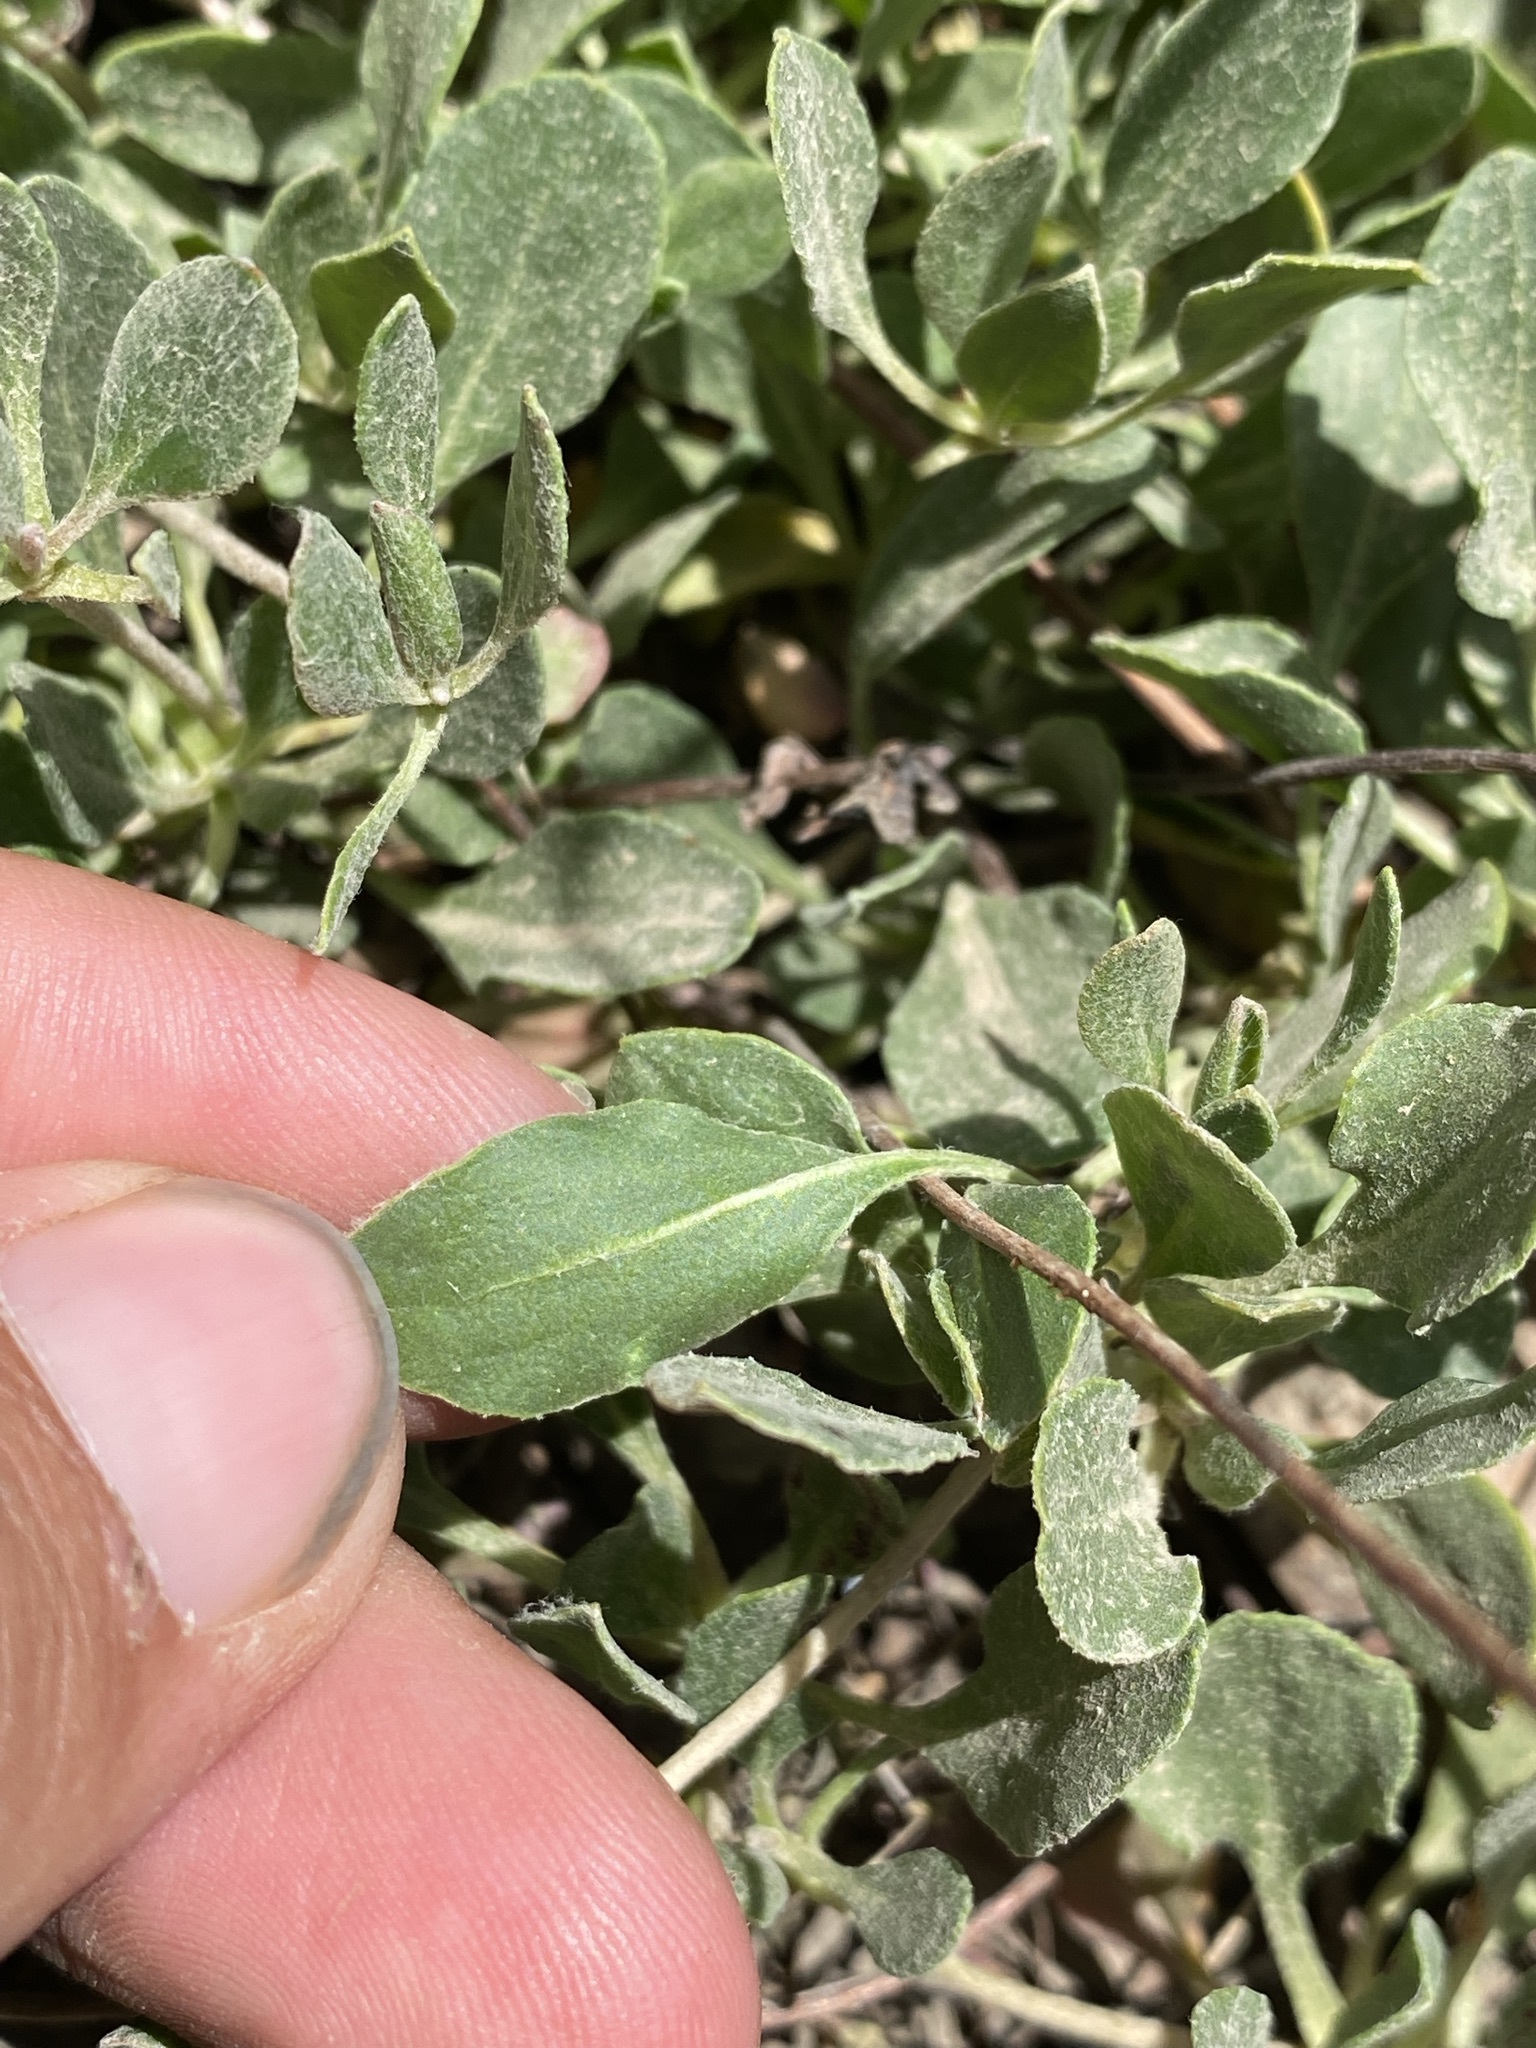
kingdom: Plantae
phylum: Tracheophyta
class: Magnoliopsida
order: Caryophyllales
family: Polygonaceae
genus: Eriogonum
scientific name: Eriogonum umbellatum
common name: Sulfur-buckwheat
